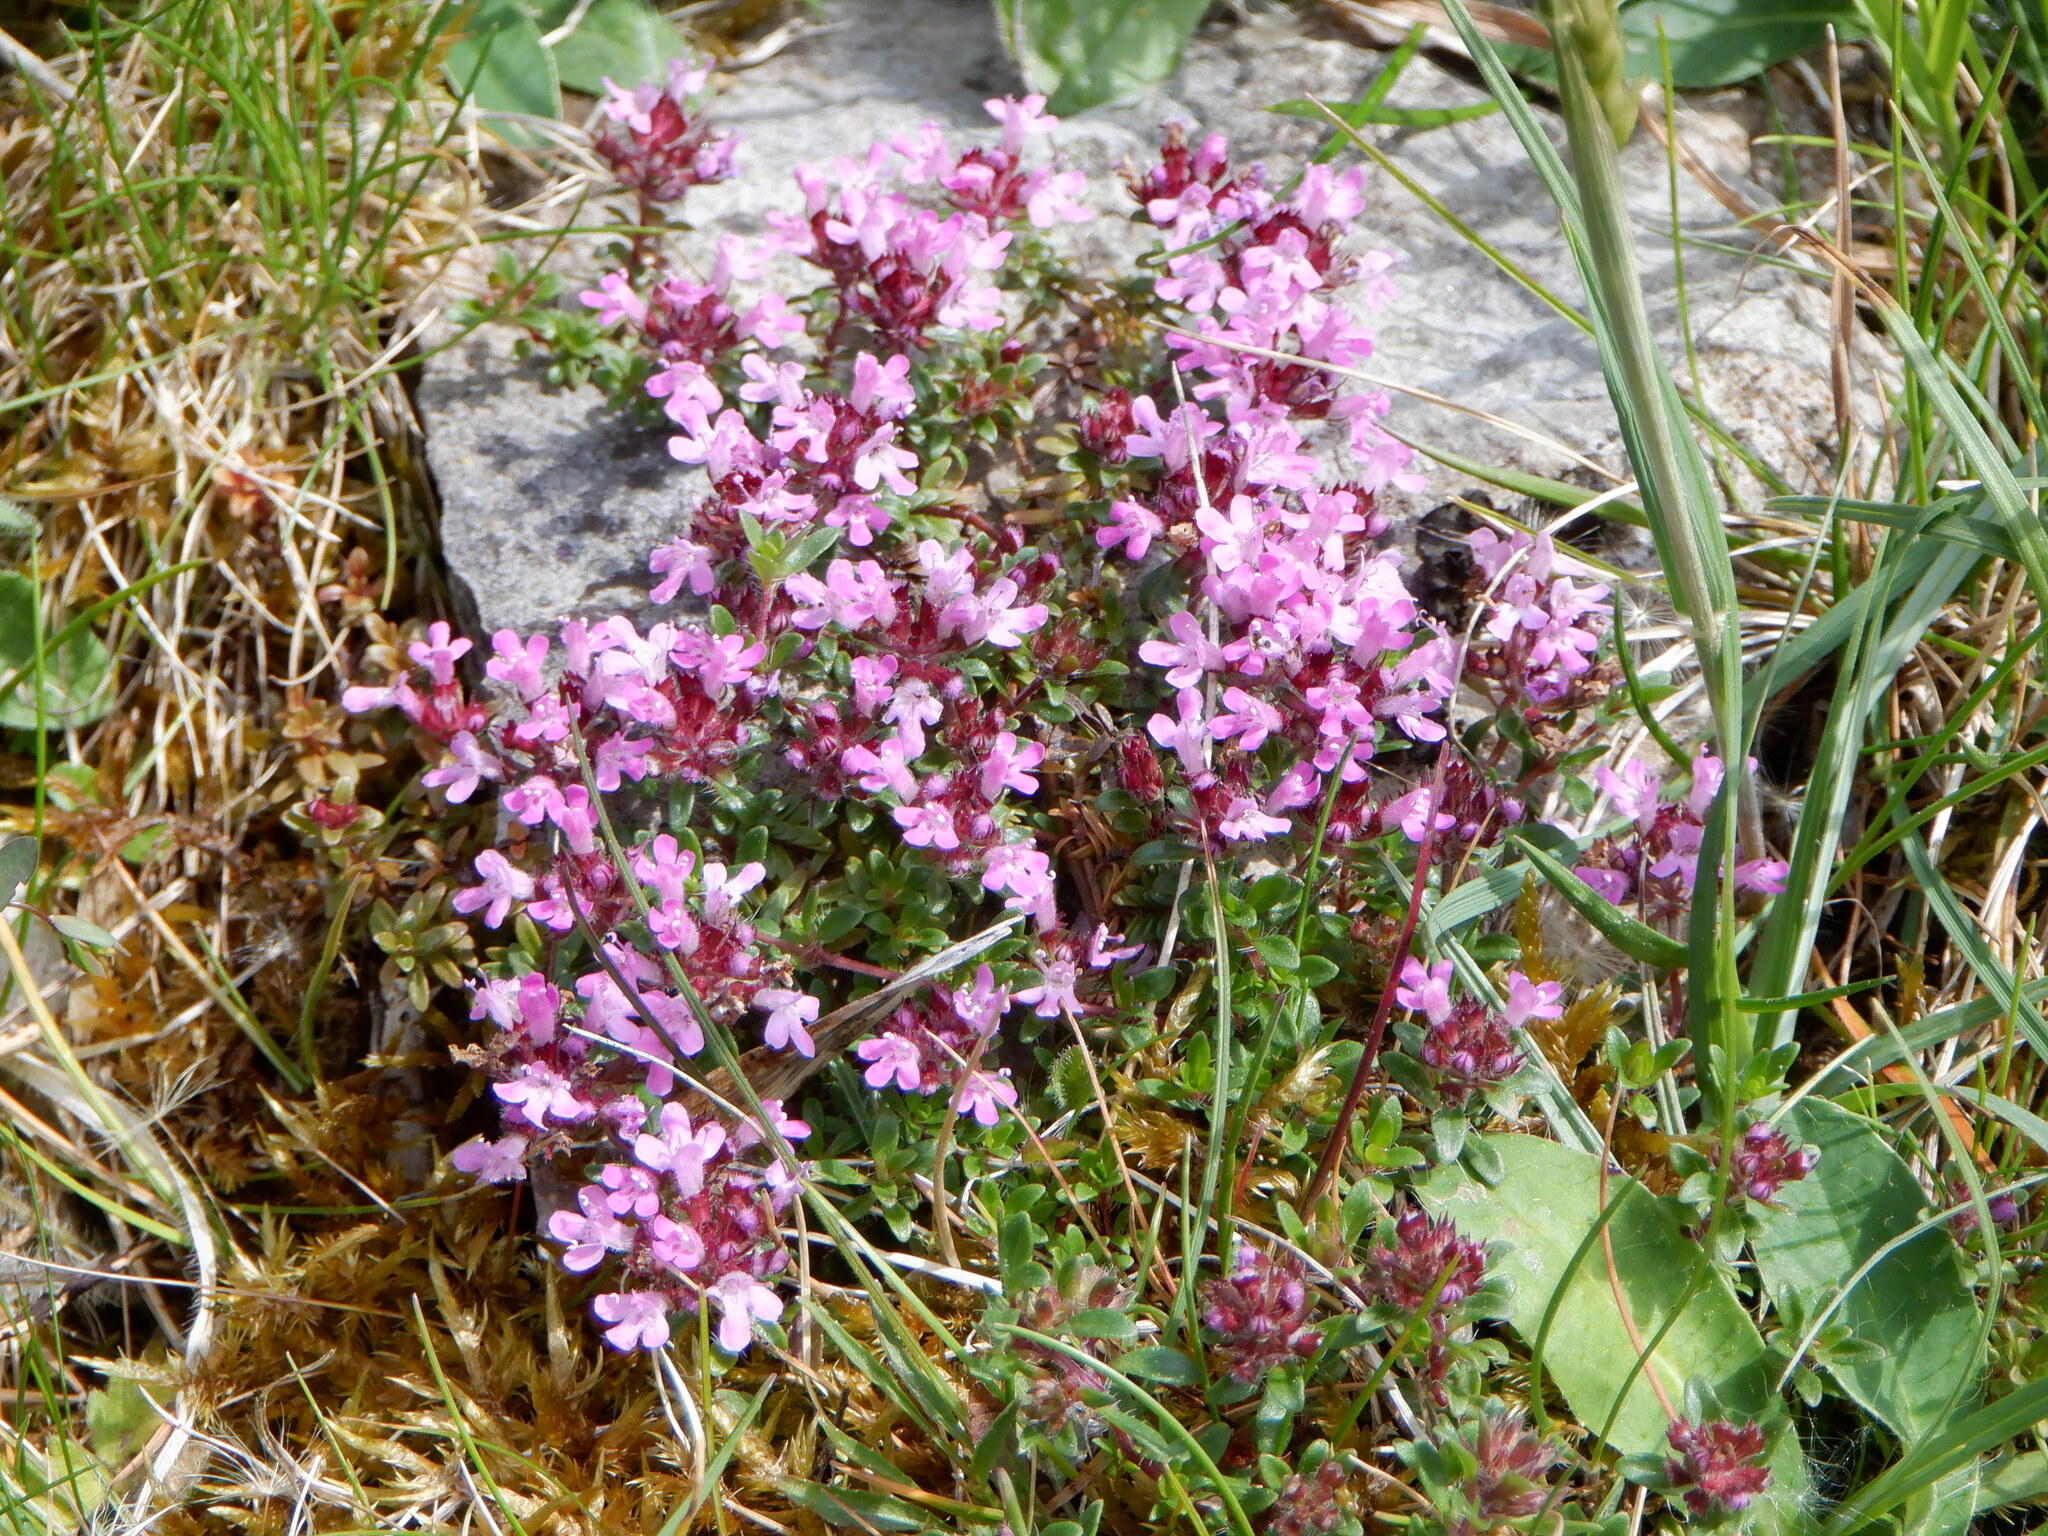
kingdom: Plantae
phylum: Tracheophyta
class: Magnoliopsida
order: Lamiales
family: Lamiaceae
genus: Thymus
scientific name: Thymus praecox
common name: Wild thyme
